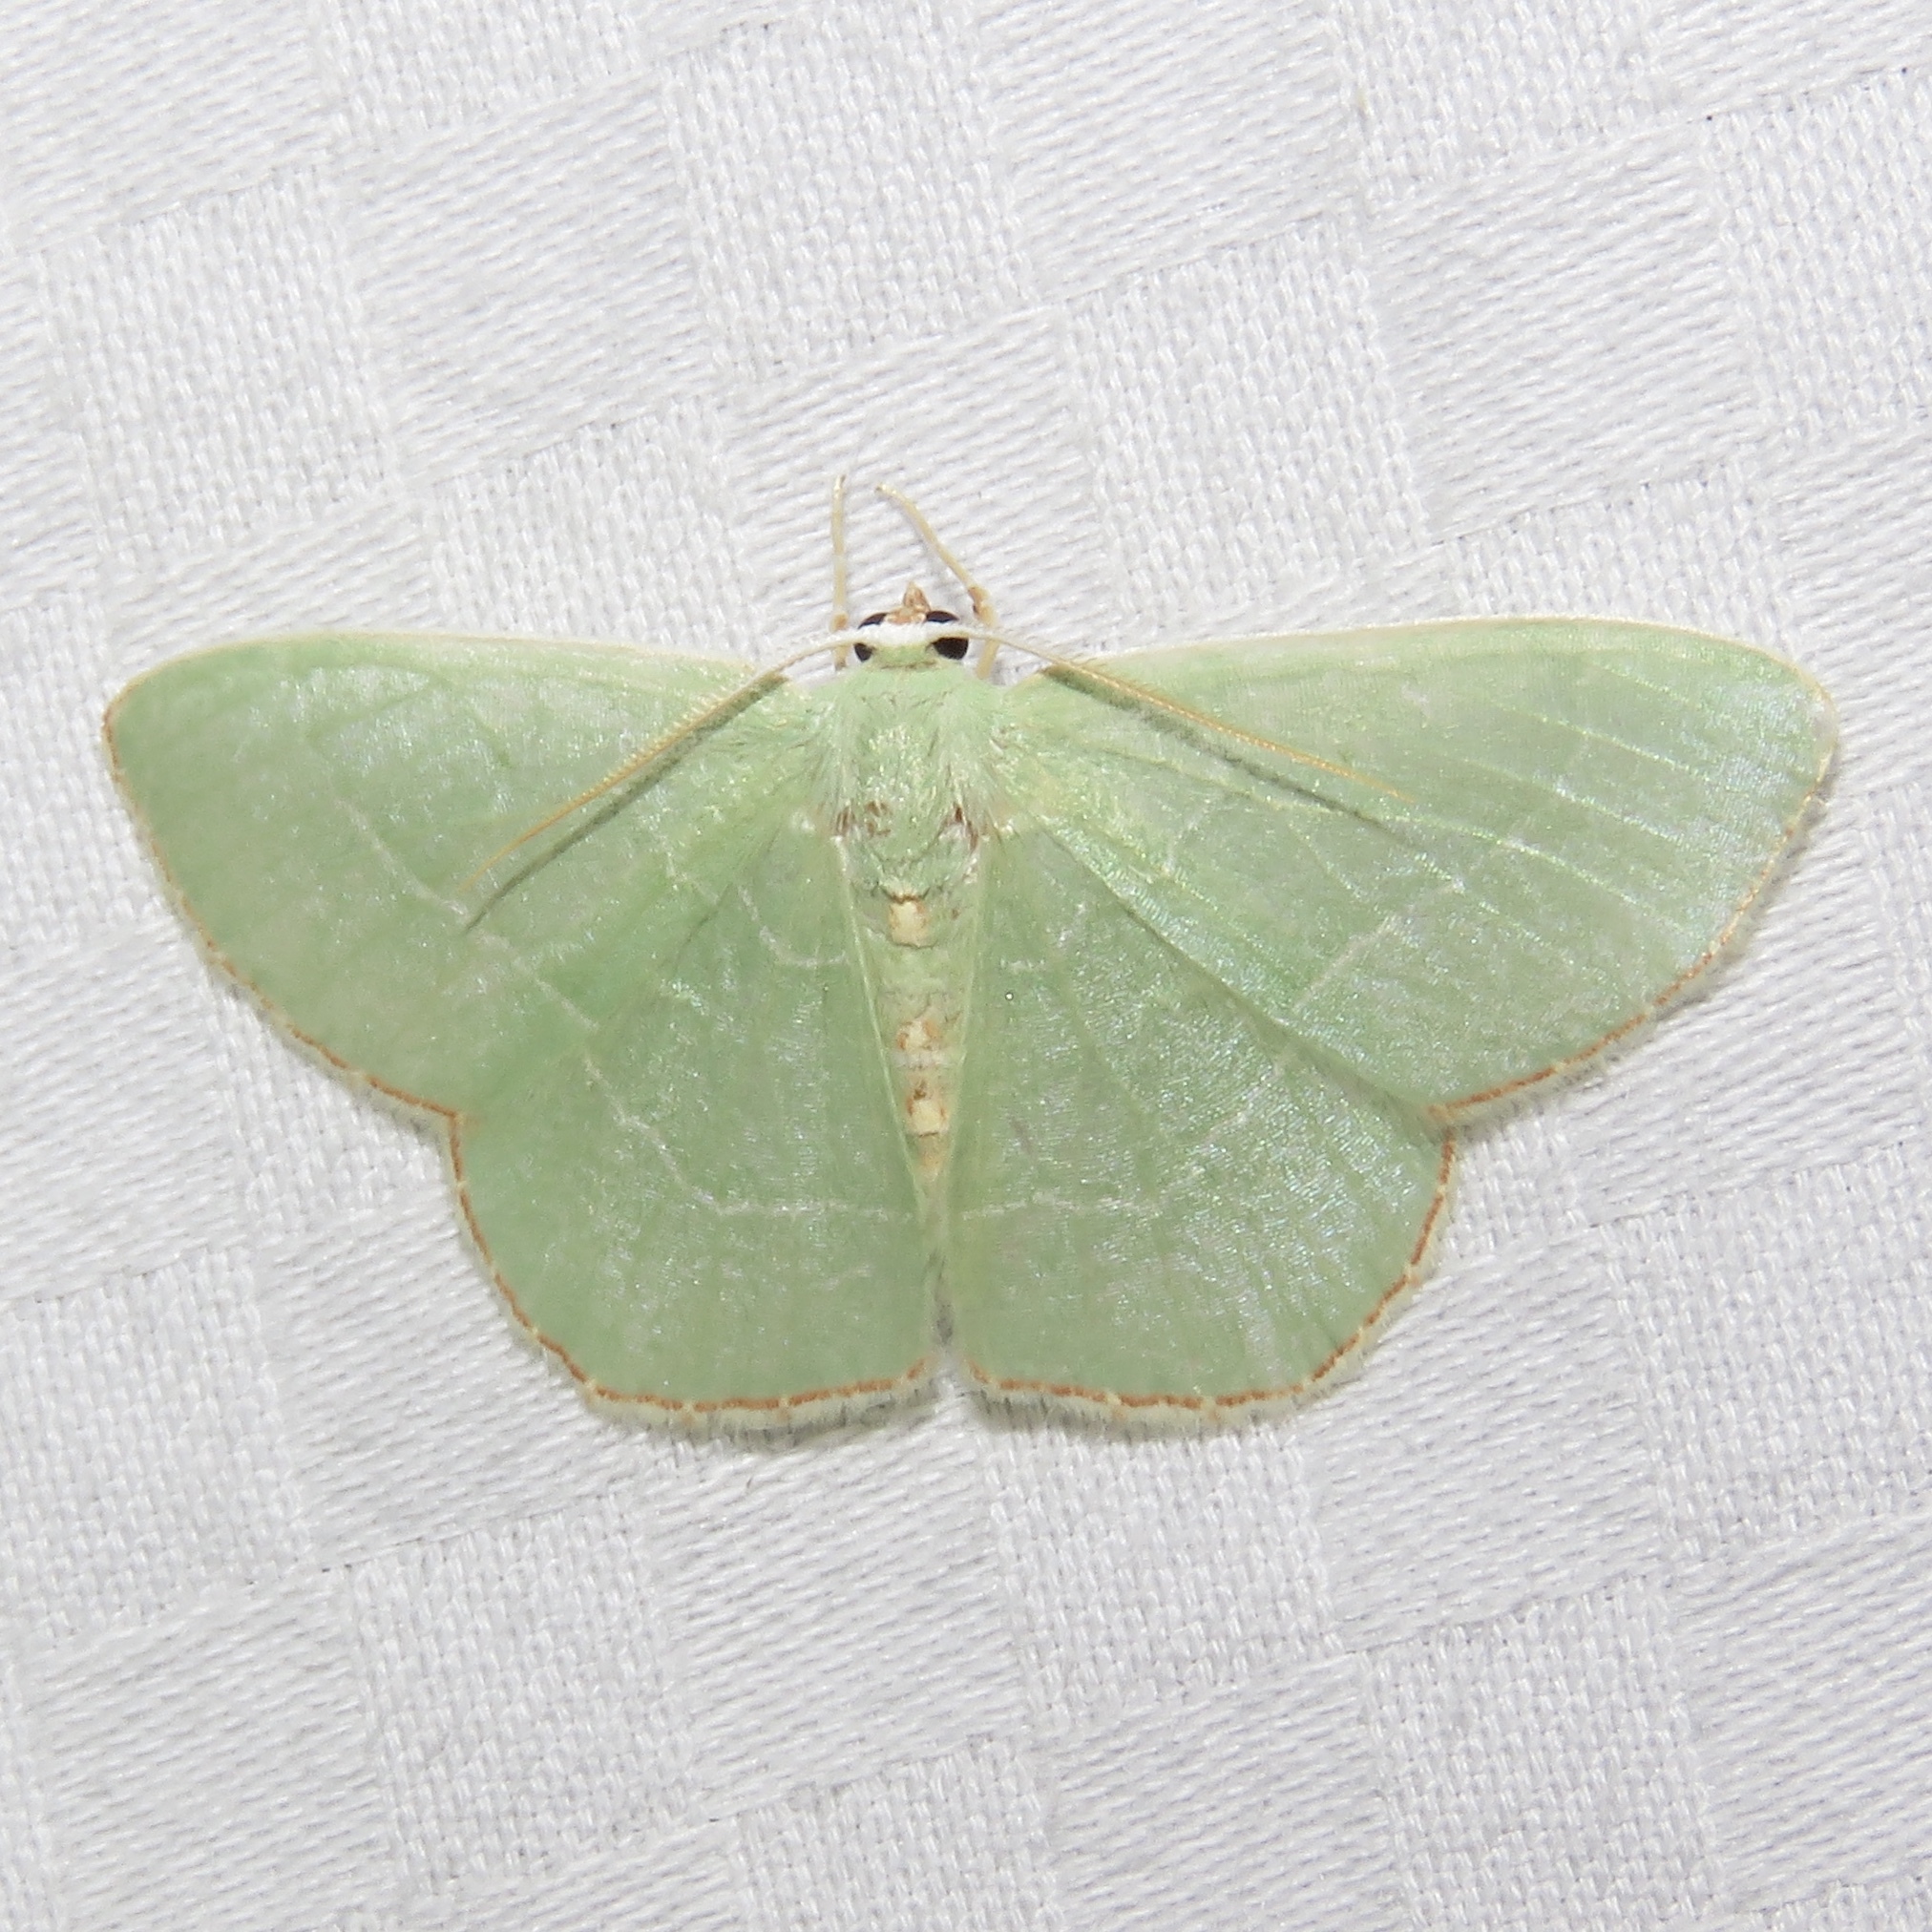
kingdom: Animalia
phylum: Arthropoda
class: Insecta
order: Lepidoptera
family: Geometridae
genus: Nemoria
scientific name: Nemoria bistriaria
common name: Red-fringed emerald
